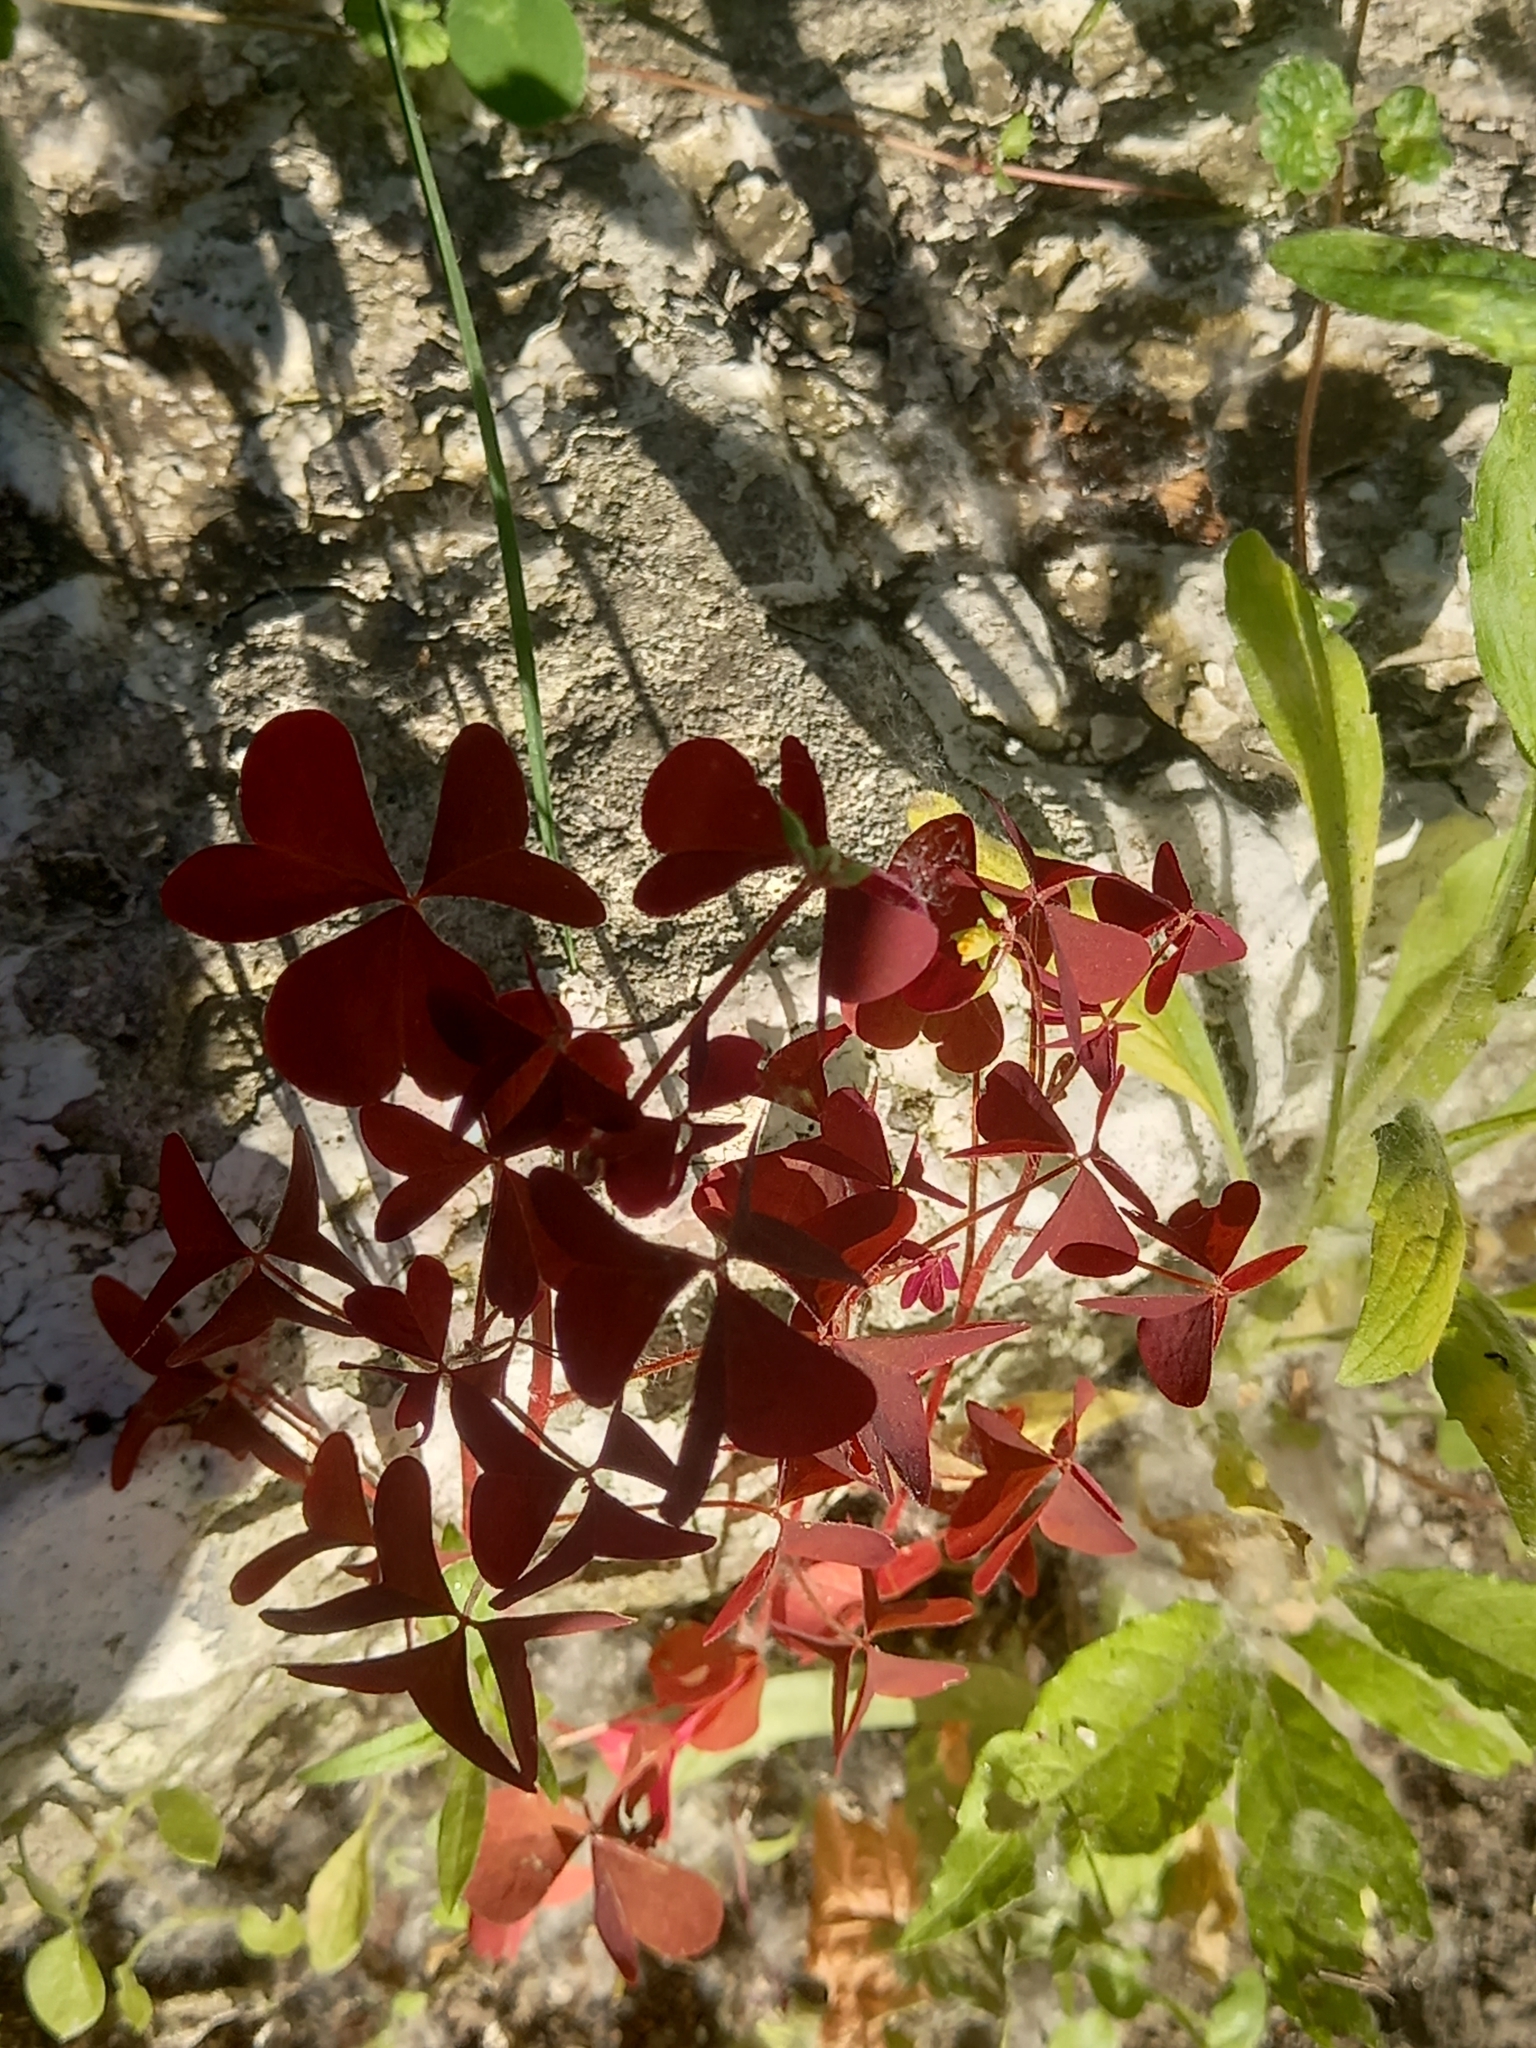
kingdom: Plantae
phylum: Tracheophyta
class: Magnoliopsida
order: Oxalidales
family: Oxalidaceae
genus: Oxalis
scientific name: Oxalis stricta
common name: Upright yellow-sorrel
